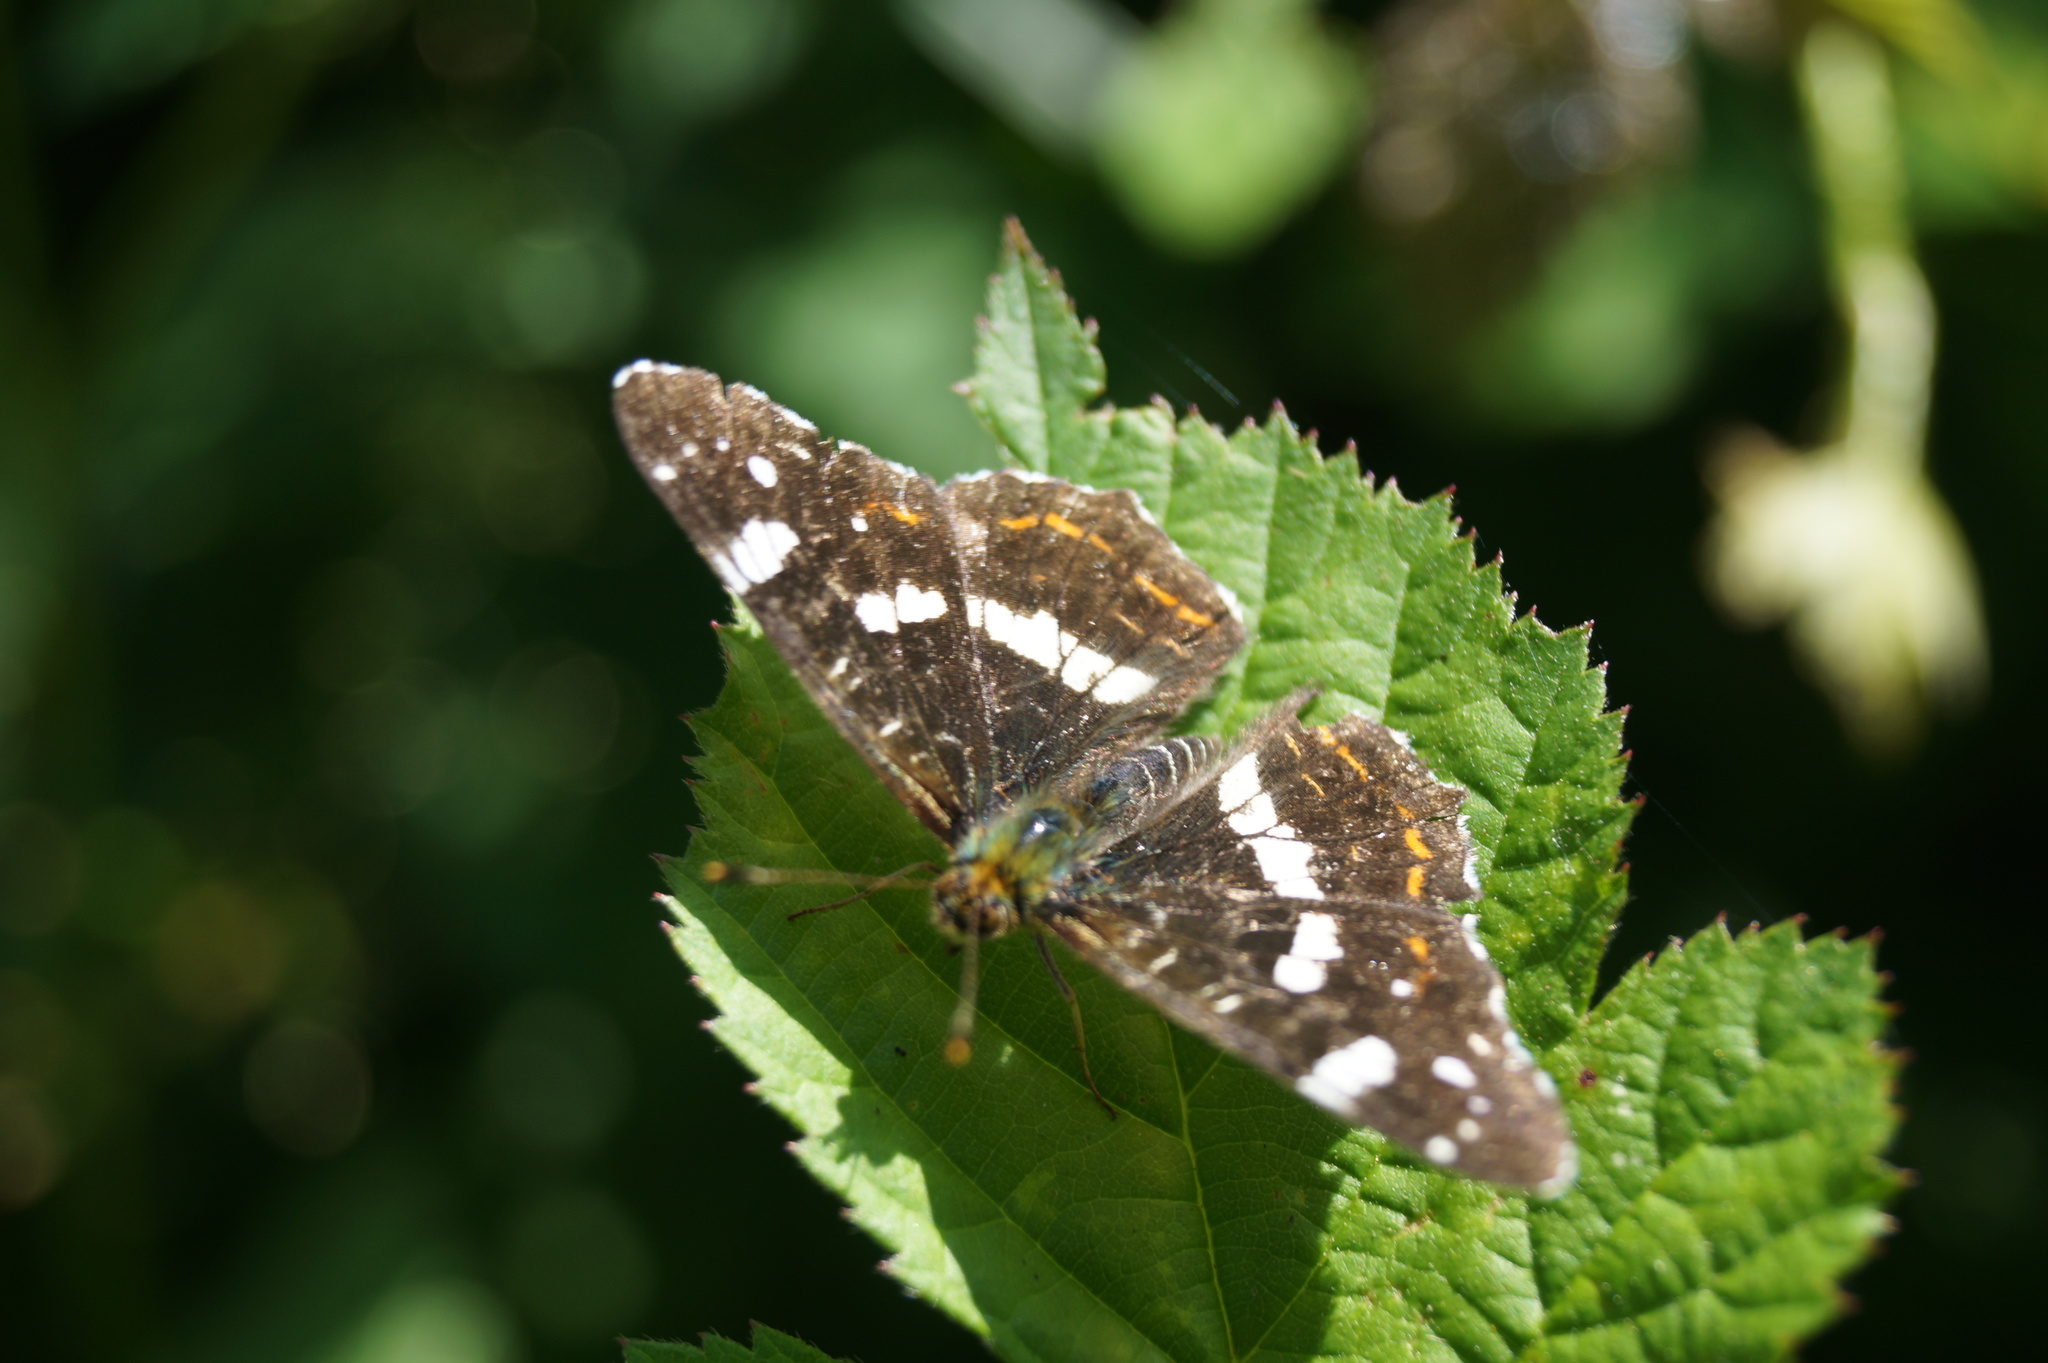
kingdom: Animalia
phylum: Arthropoda
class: Insecta
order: Lepidoptera
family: Nymphalidae
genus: Araschnia
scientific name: Araschnia levana
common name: Map butterfly
